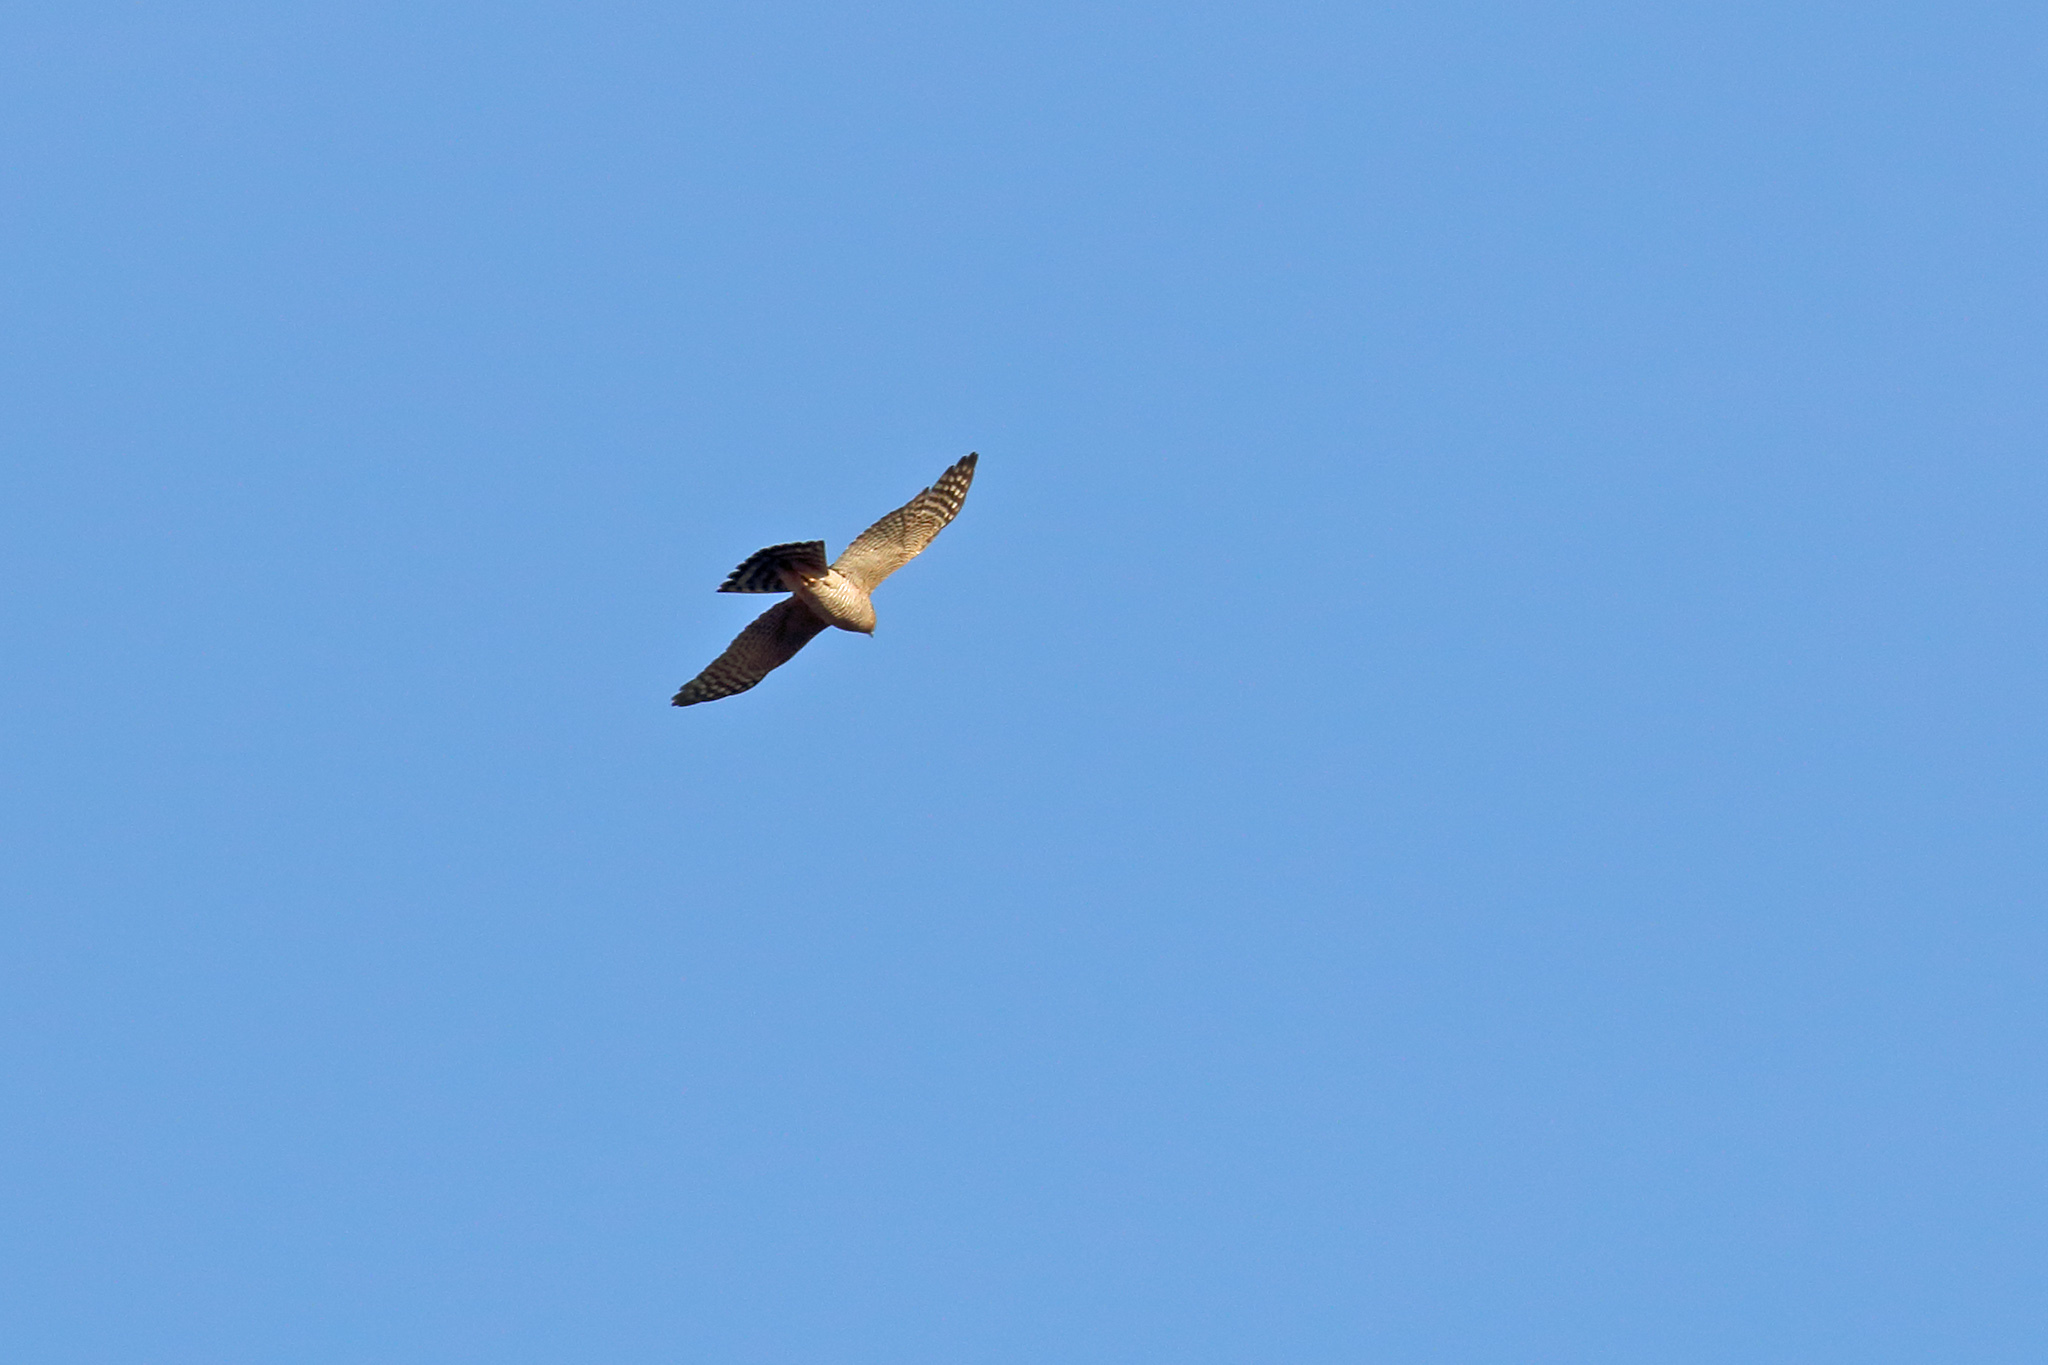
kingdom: Animalia
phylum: Chordata
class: Aves
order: Accipitriformes
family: Accipitridae
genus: Accipiter
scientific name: Accipiter nisus
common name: Eurasian sparrowhawk
